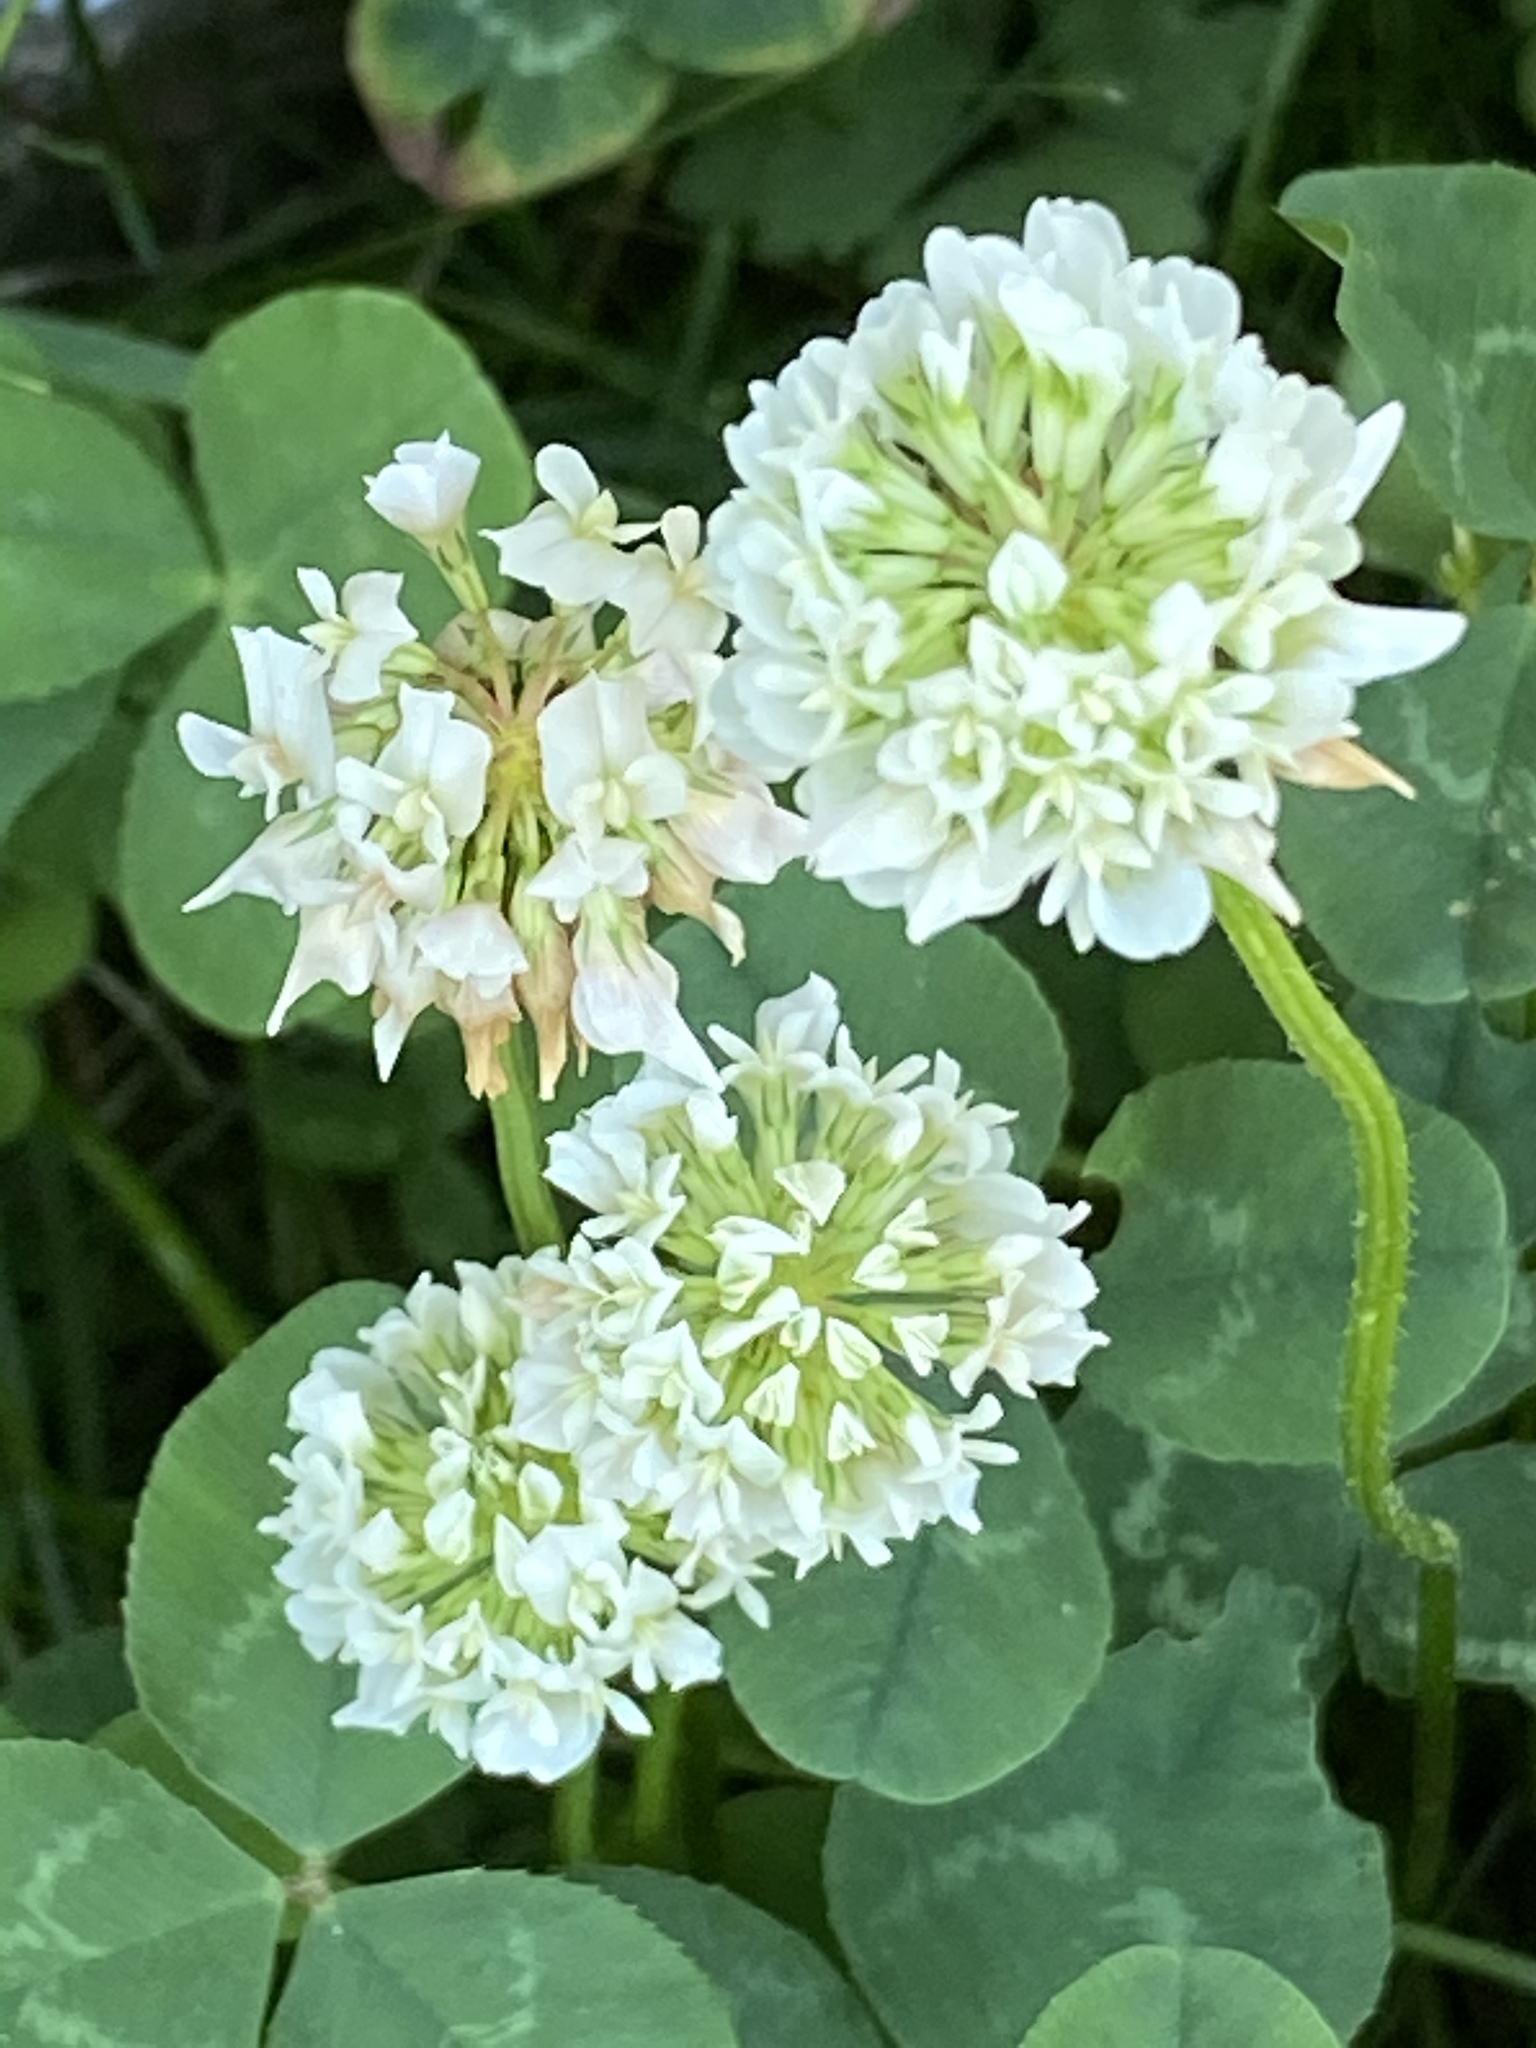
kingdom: Plantae
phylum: Tracheophyta
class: Magnoliopsida
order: Fabales
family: Fabaceae
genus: Trifolium
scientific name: Trifolium repens
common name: White clover
